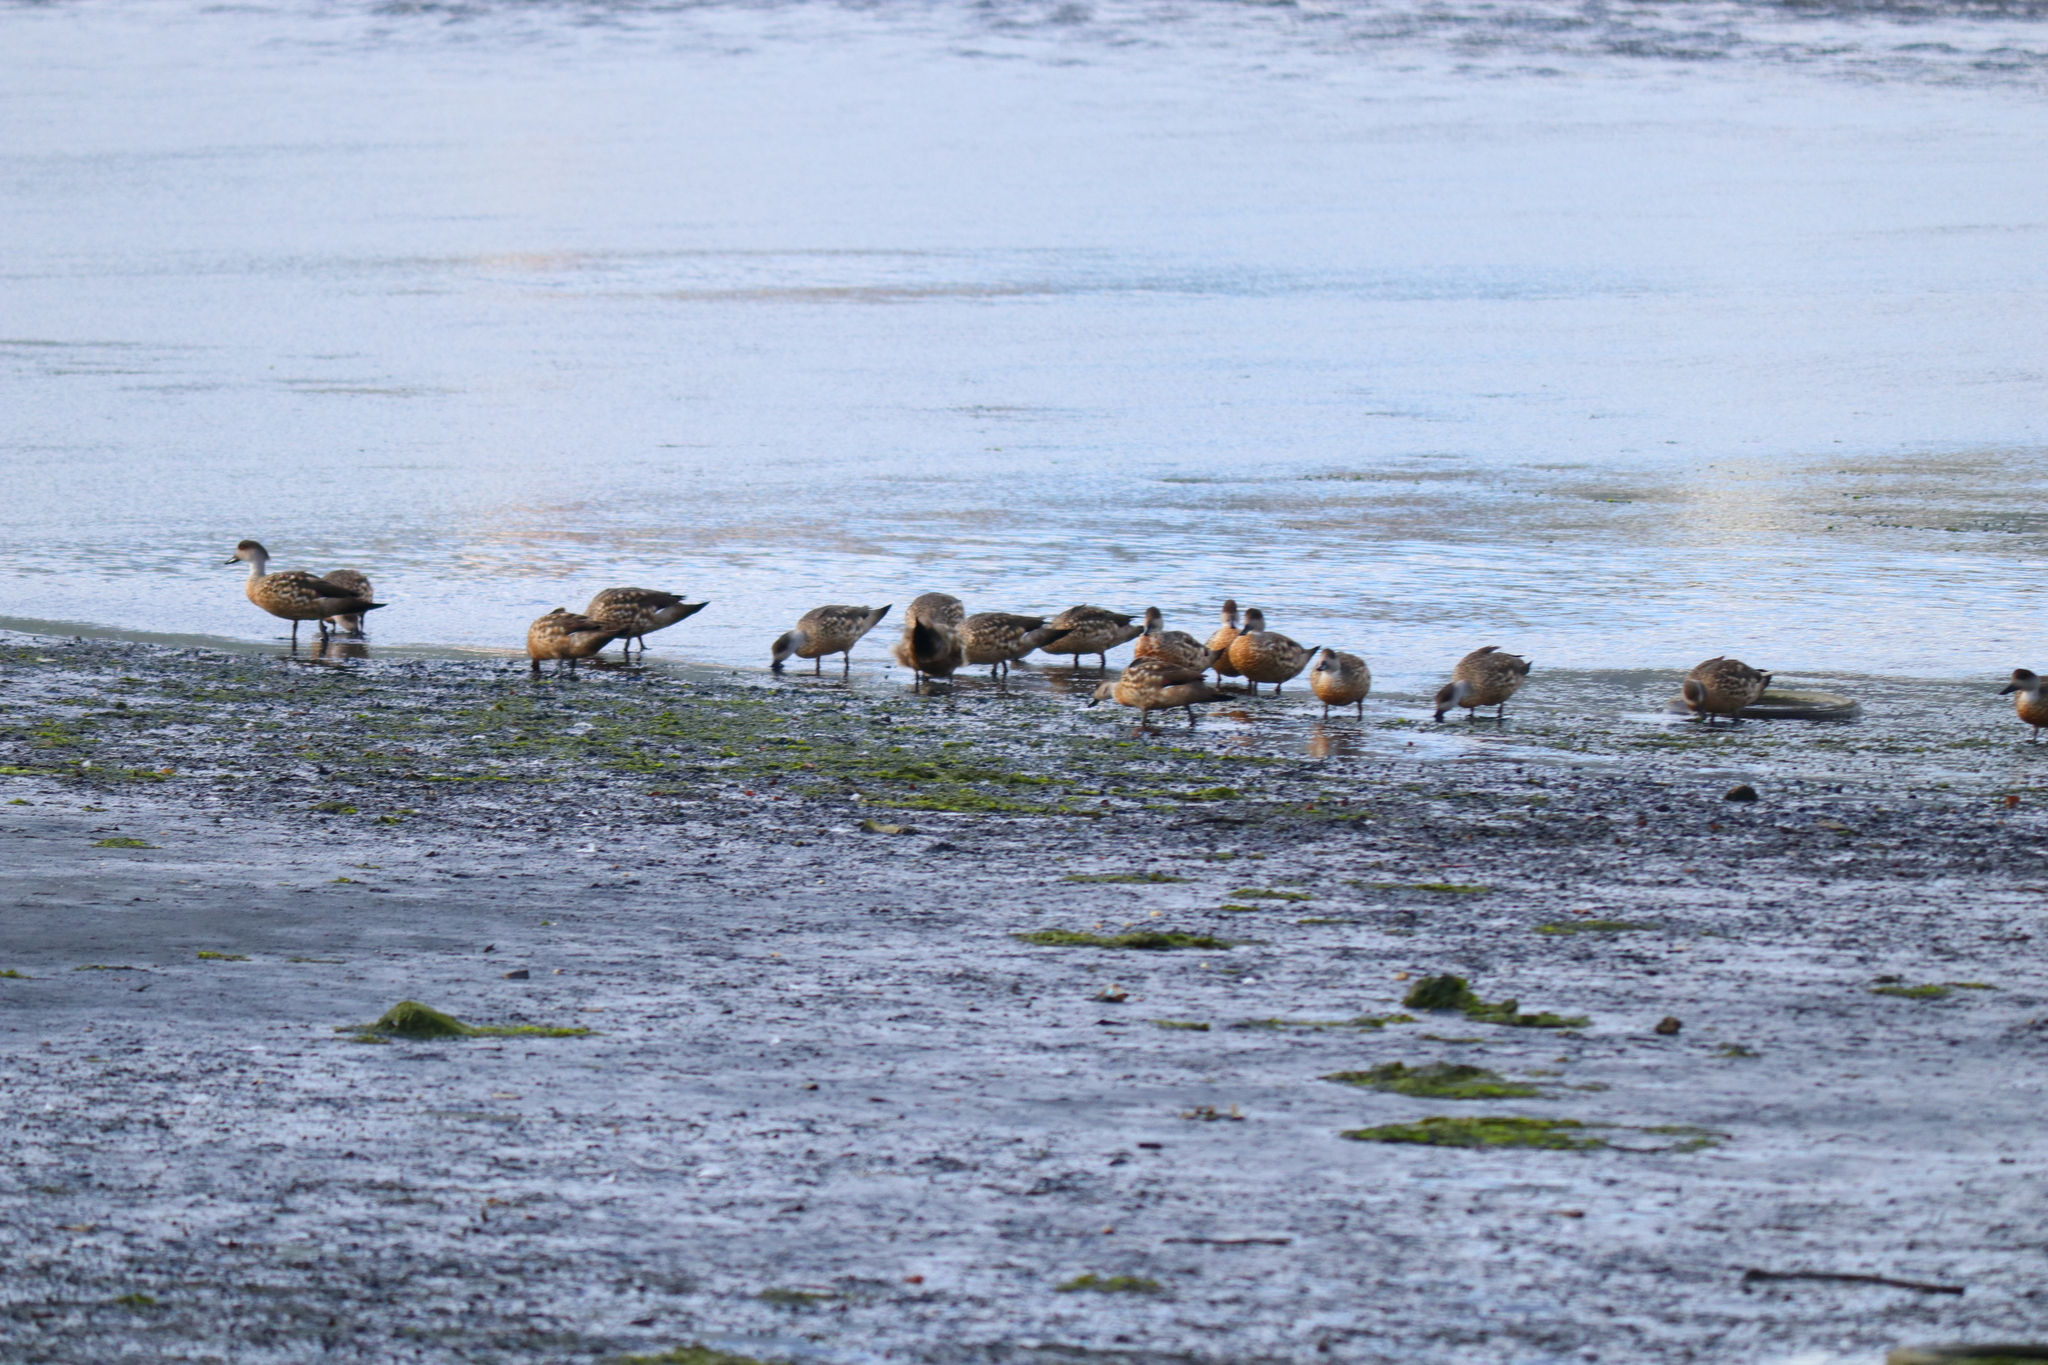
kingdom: Animalia
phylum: Chordata
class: Aves
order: Anseriformes
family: Anatidae
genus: Lophonetta
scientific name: Lophonetta specularioides
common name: Crested duck
